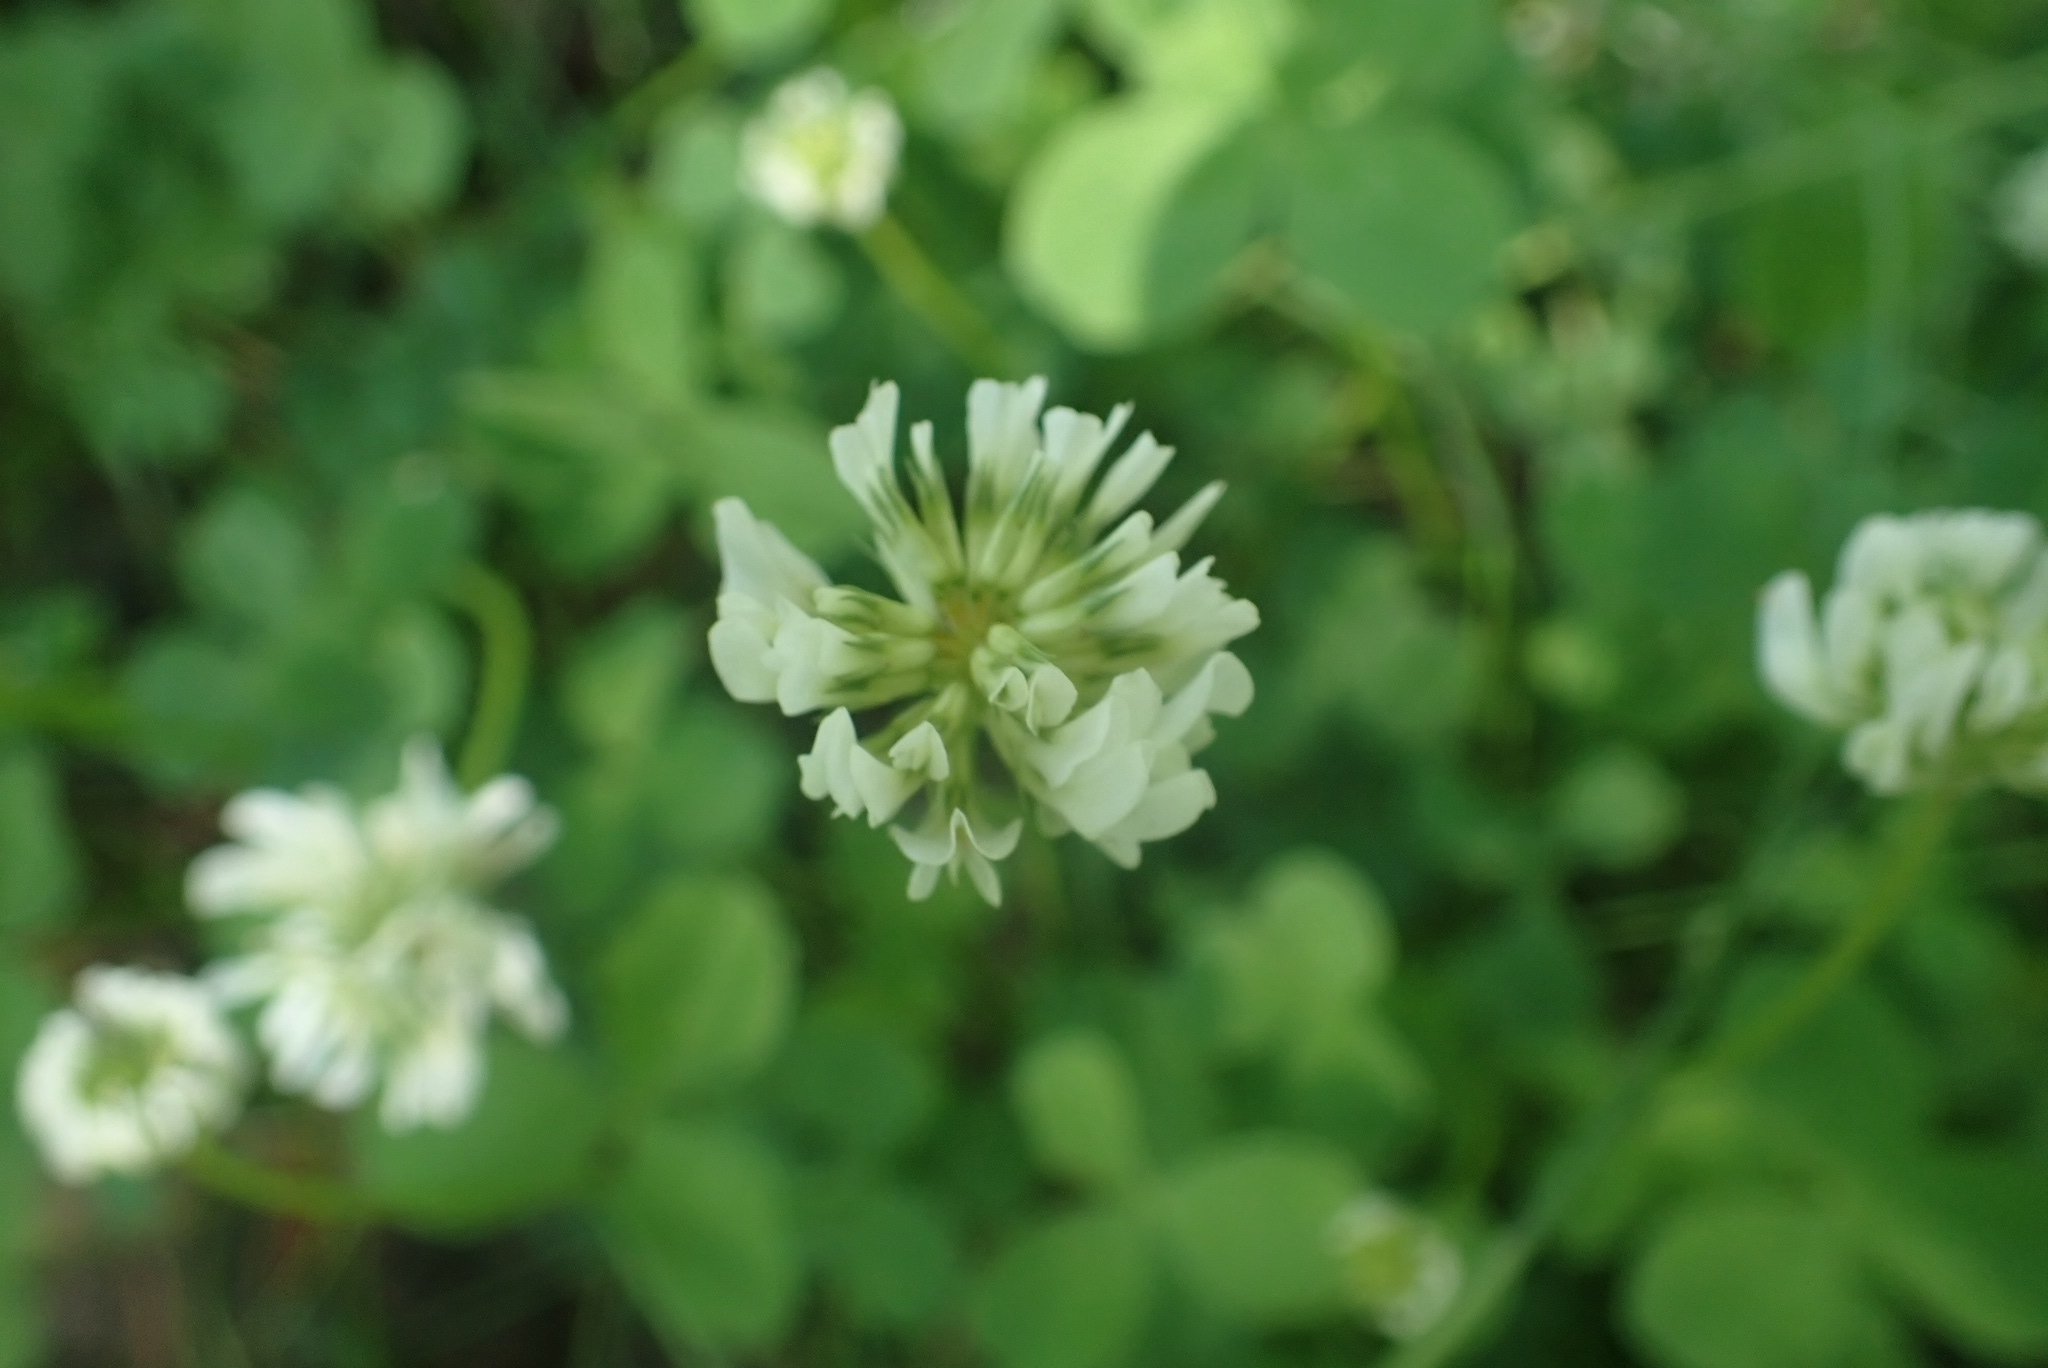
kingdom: Plantae
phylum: Tracheophyta
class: Magnoliopsida
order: Fabales
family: Fabaceae
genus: Trifolium
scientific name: Trifolium repens
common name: White clover
